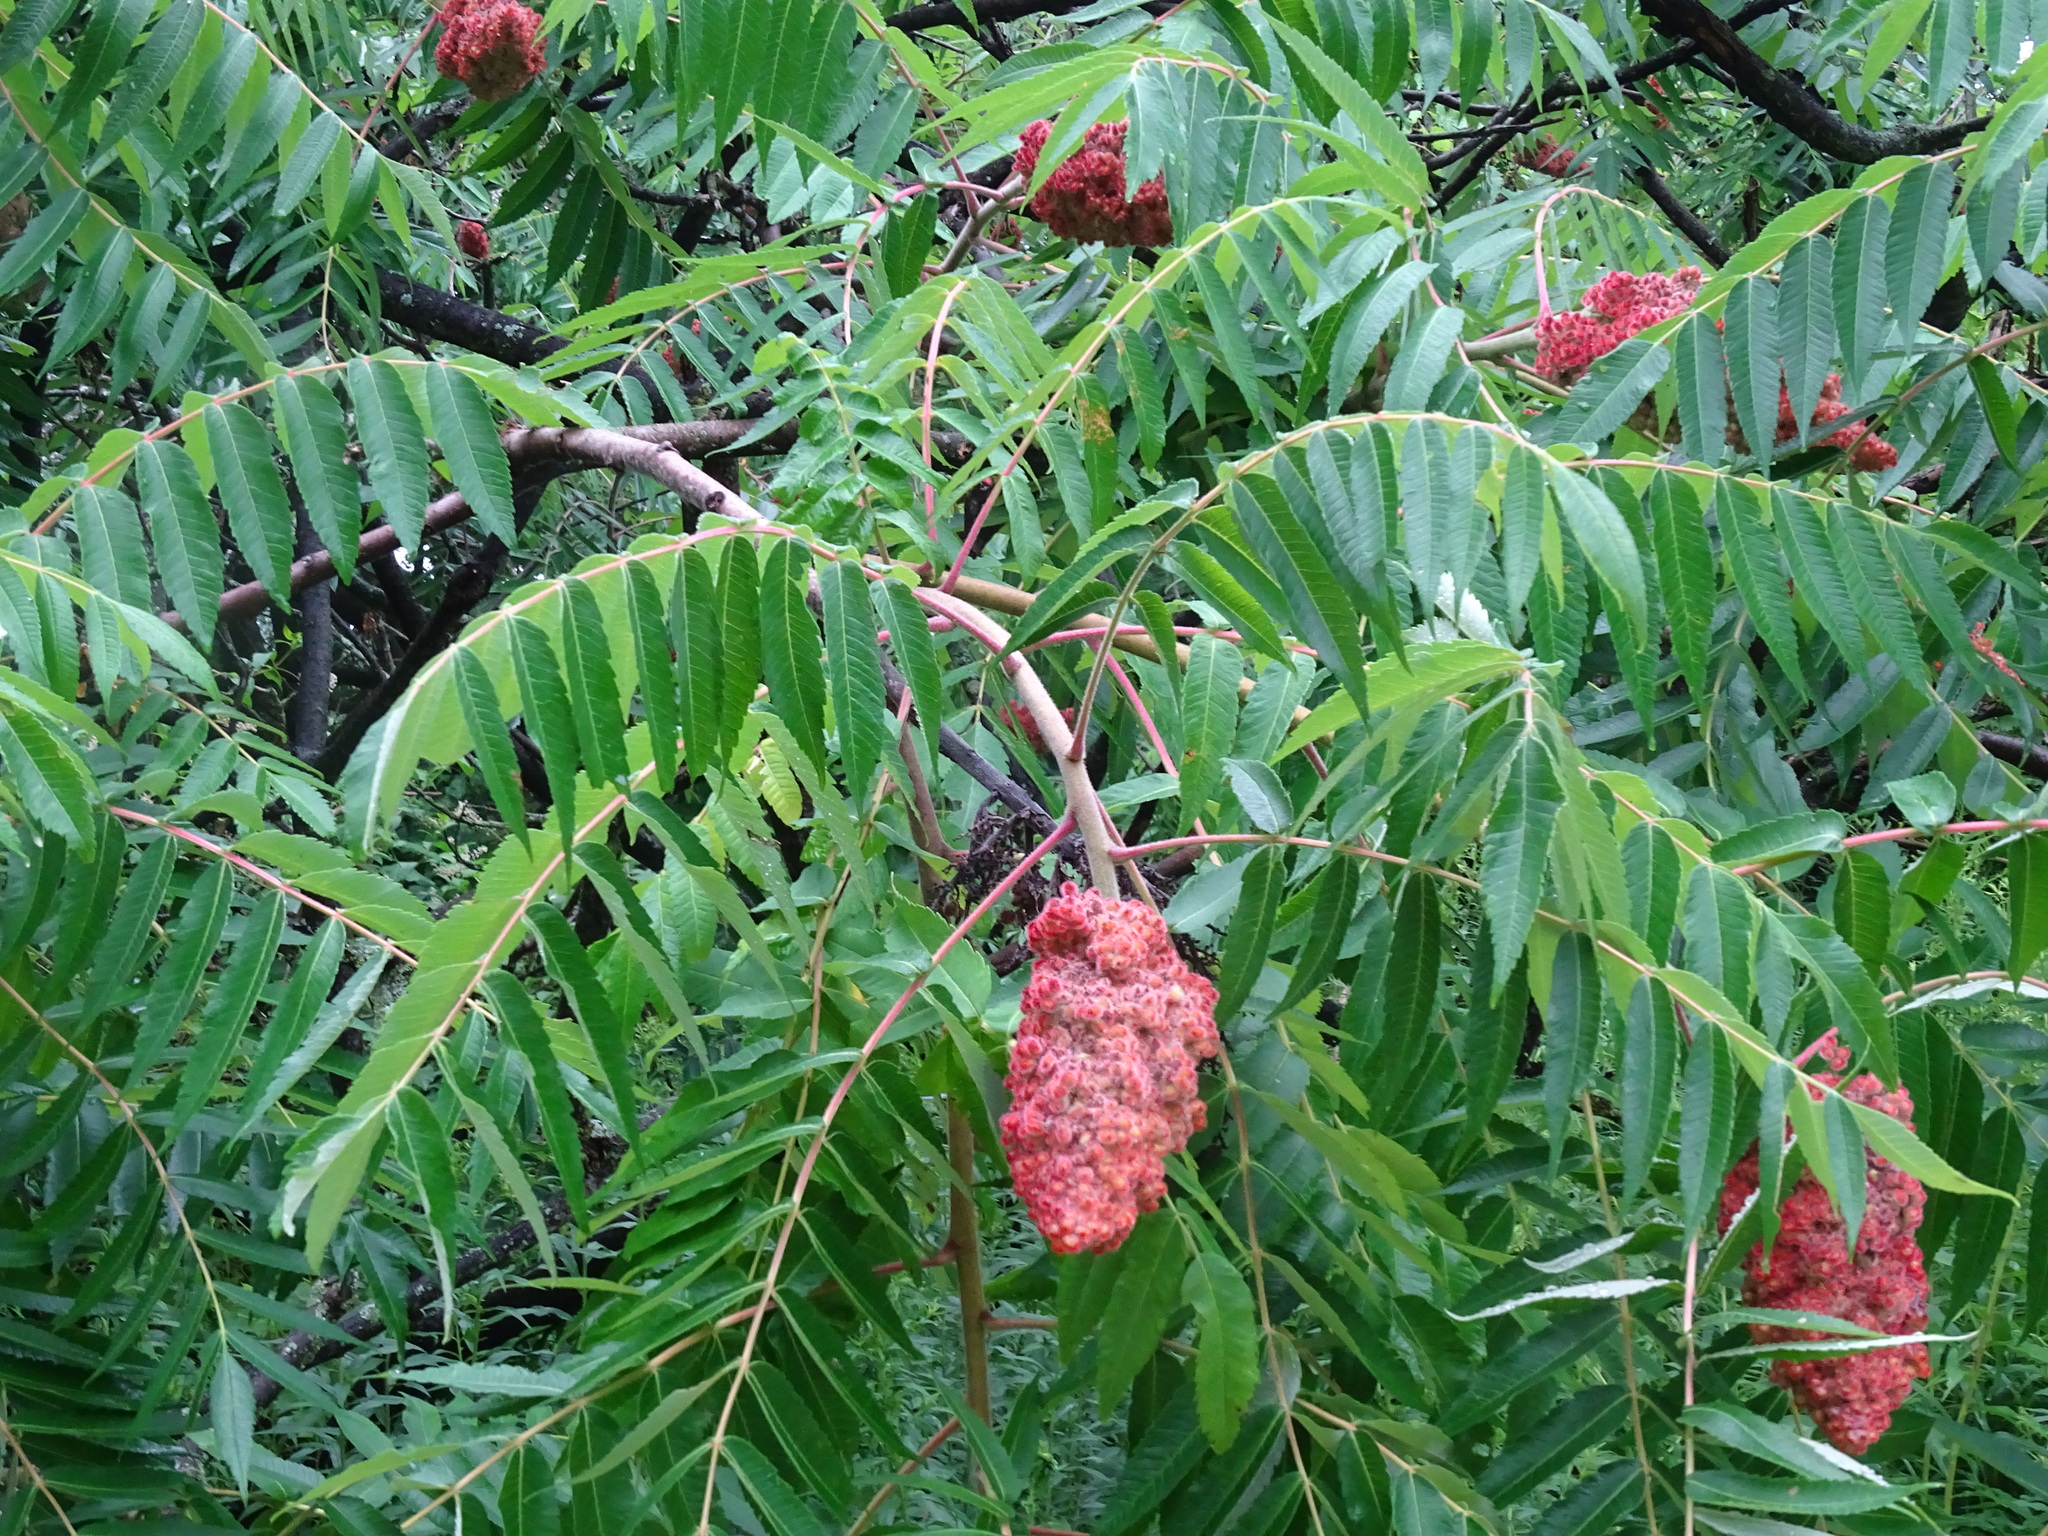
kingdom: Plantae
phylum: Tracheophyta
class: Magnoliopsida
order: Sapindales
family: Anacardiaceae
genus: Rhus
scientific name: Rhus typhina
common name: Staghorn sumac
